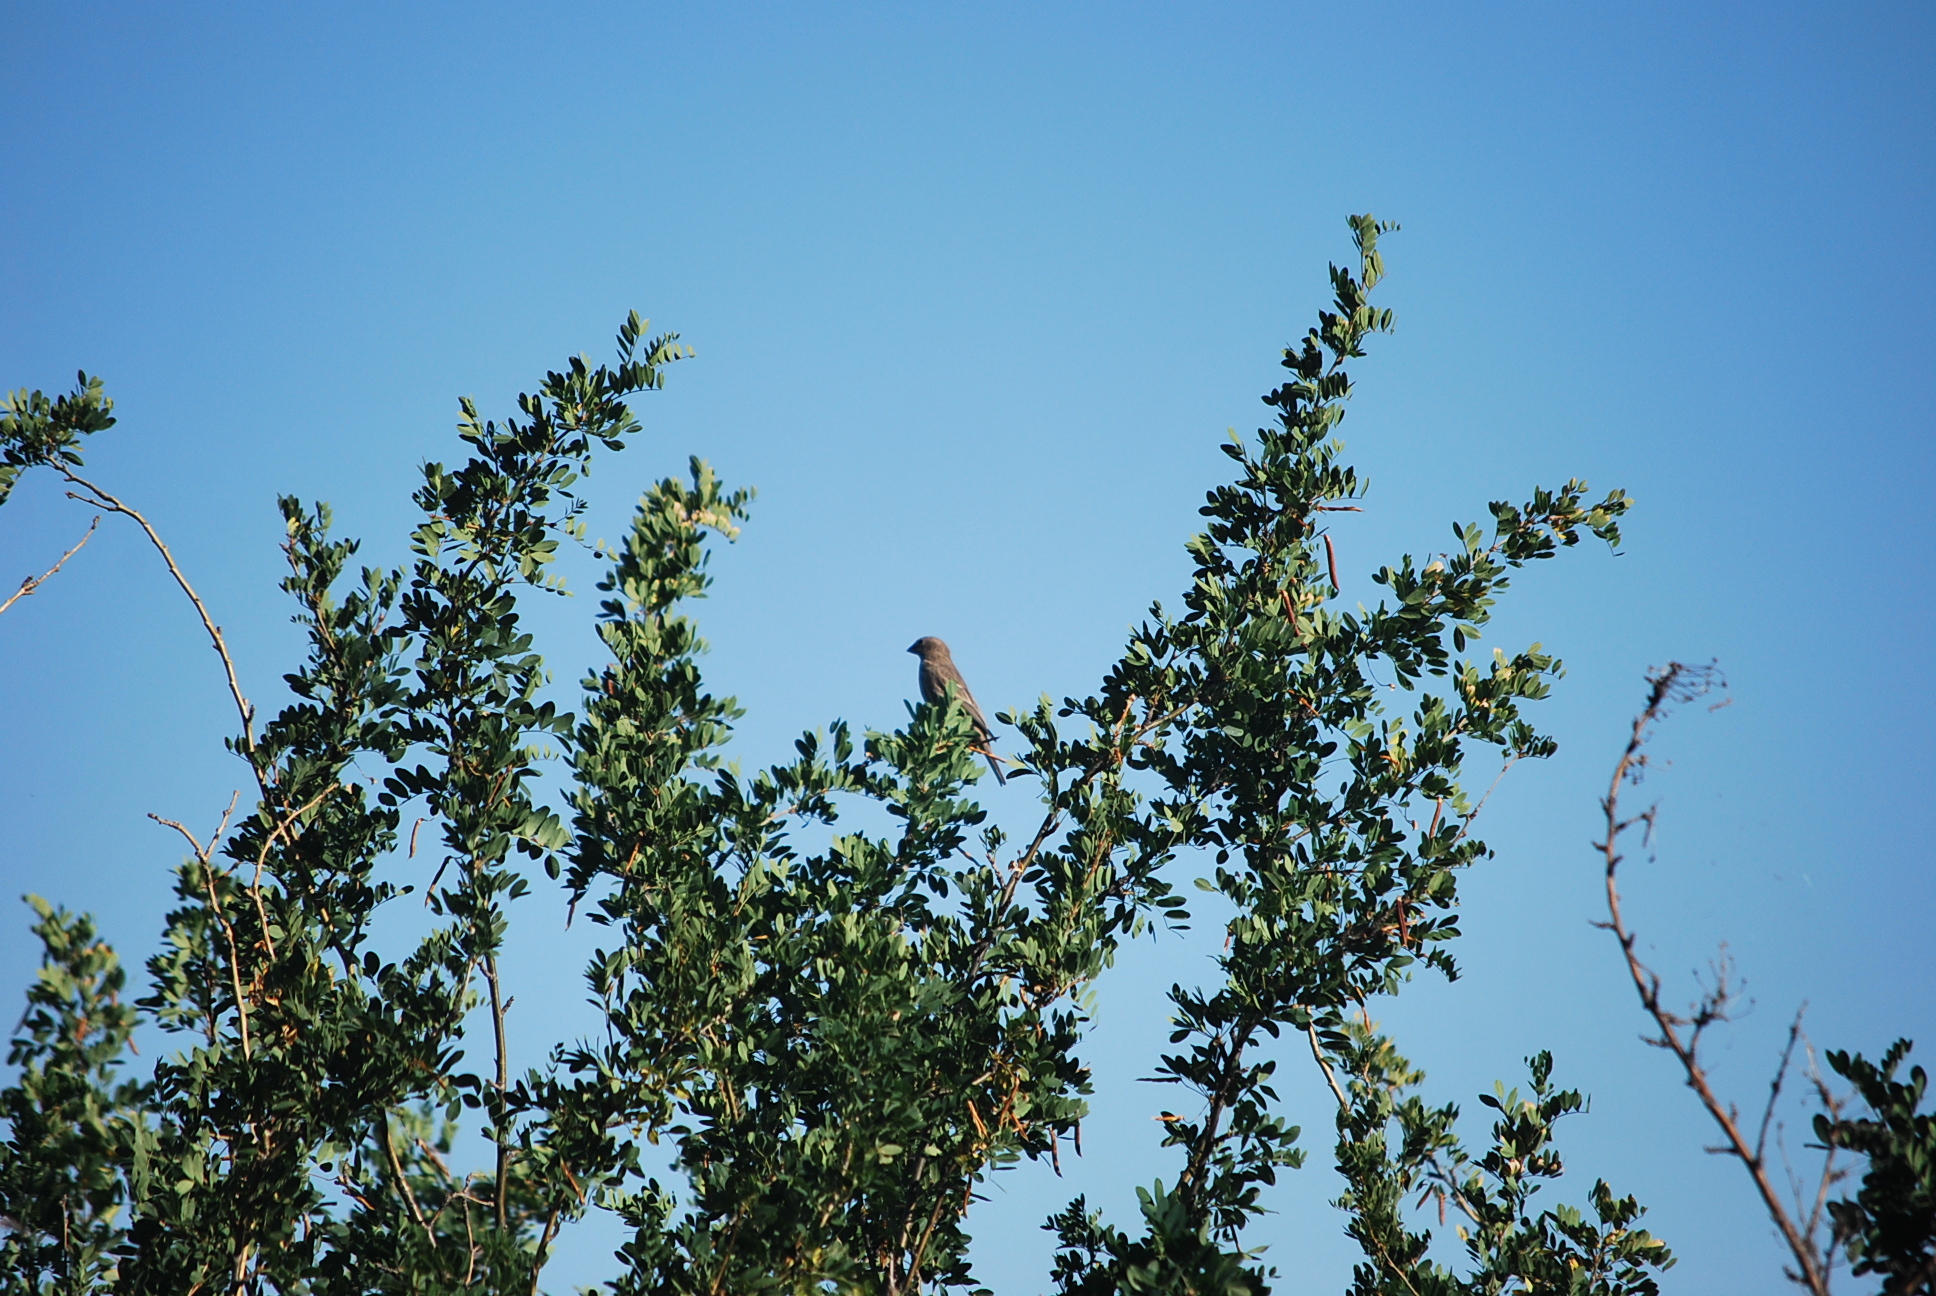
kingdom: Animalia
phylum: Chordata
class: Aves
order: Passeriformes
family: Fringillidae
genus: Haemorhous
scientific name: Haemorhous mexicanus
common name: House finch
